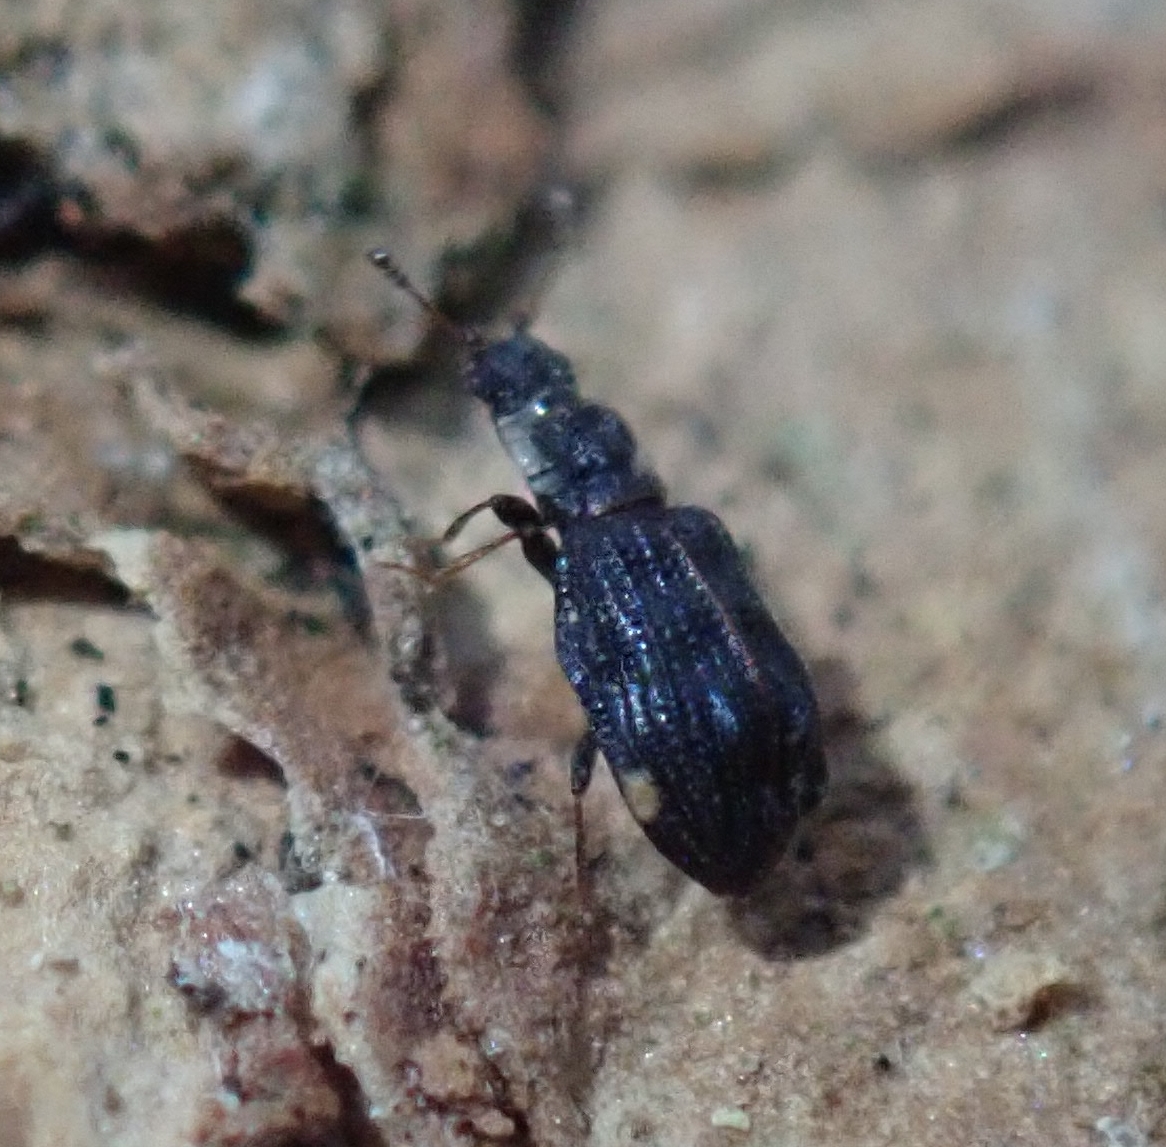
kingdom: Animalia
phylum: Arthropoda
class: Insecta
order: Coleoptera
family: Latridiidae
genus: Cartodere
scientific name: Cartodere nodifer
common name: Humpbacked minute scavenger beetle
